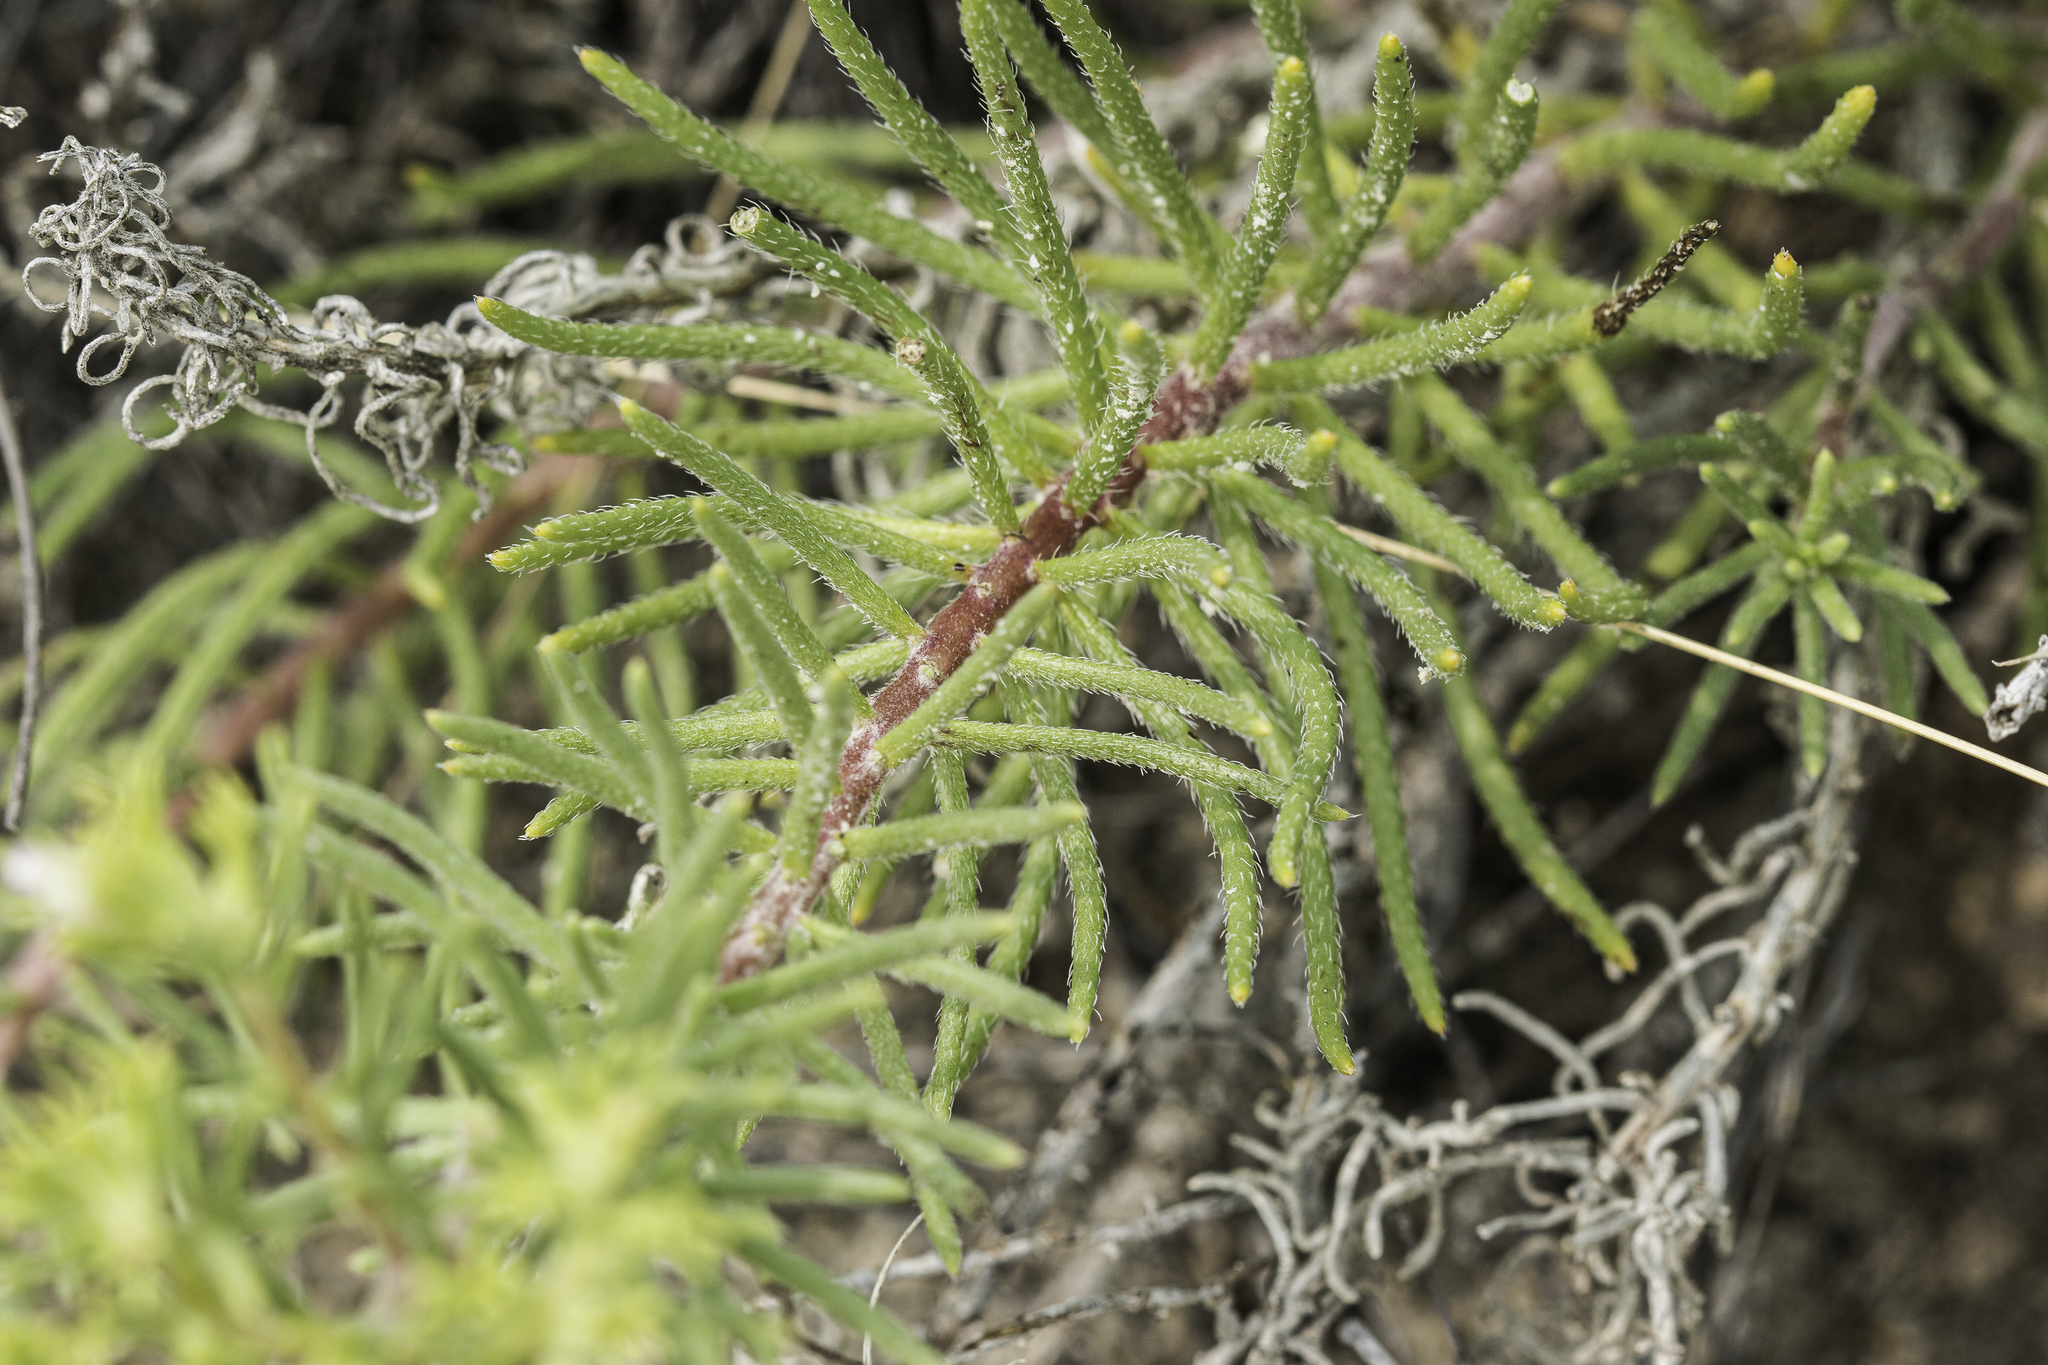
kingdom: Plantae
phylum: Tracheophyta
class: Magnoliopsida
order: Boraginales
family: Namaceae
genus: Andropus
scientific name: Andropus carnosus
